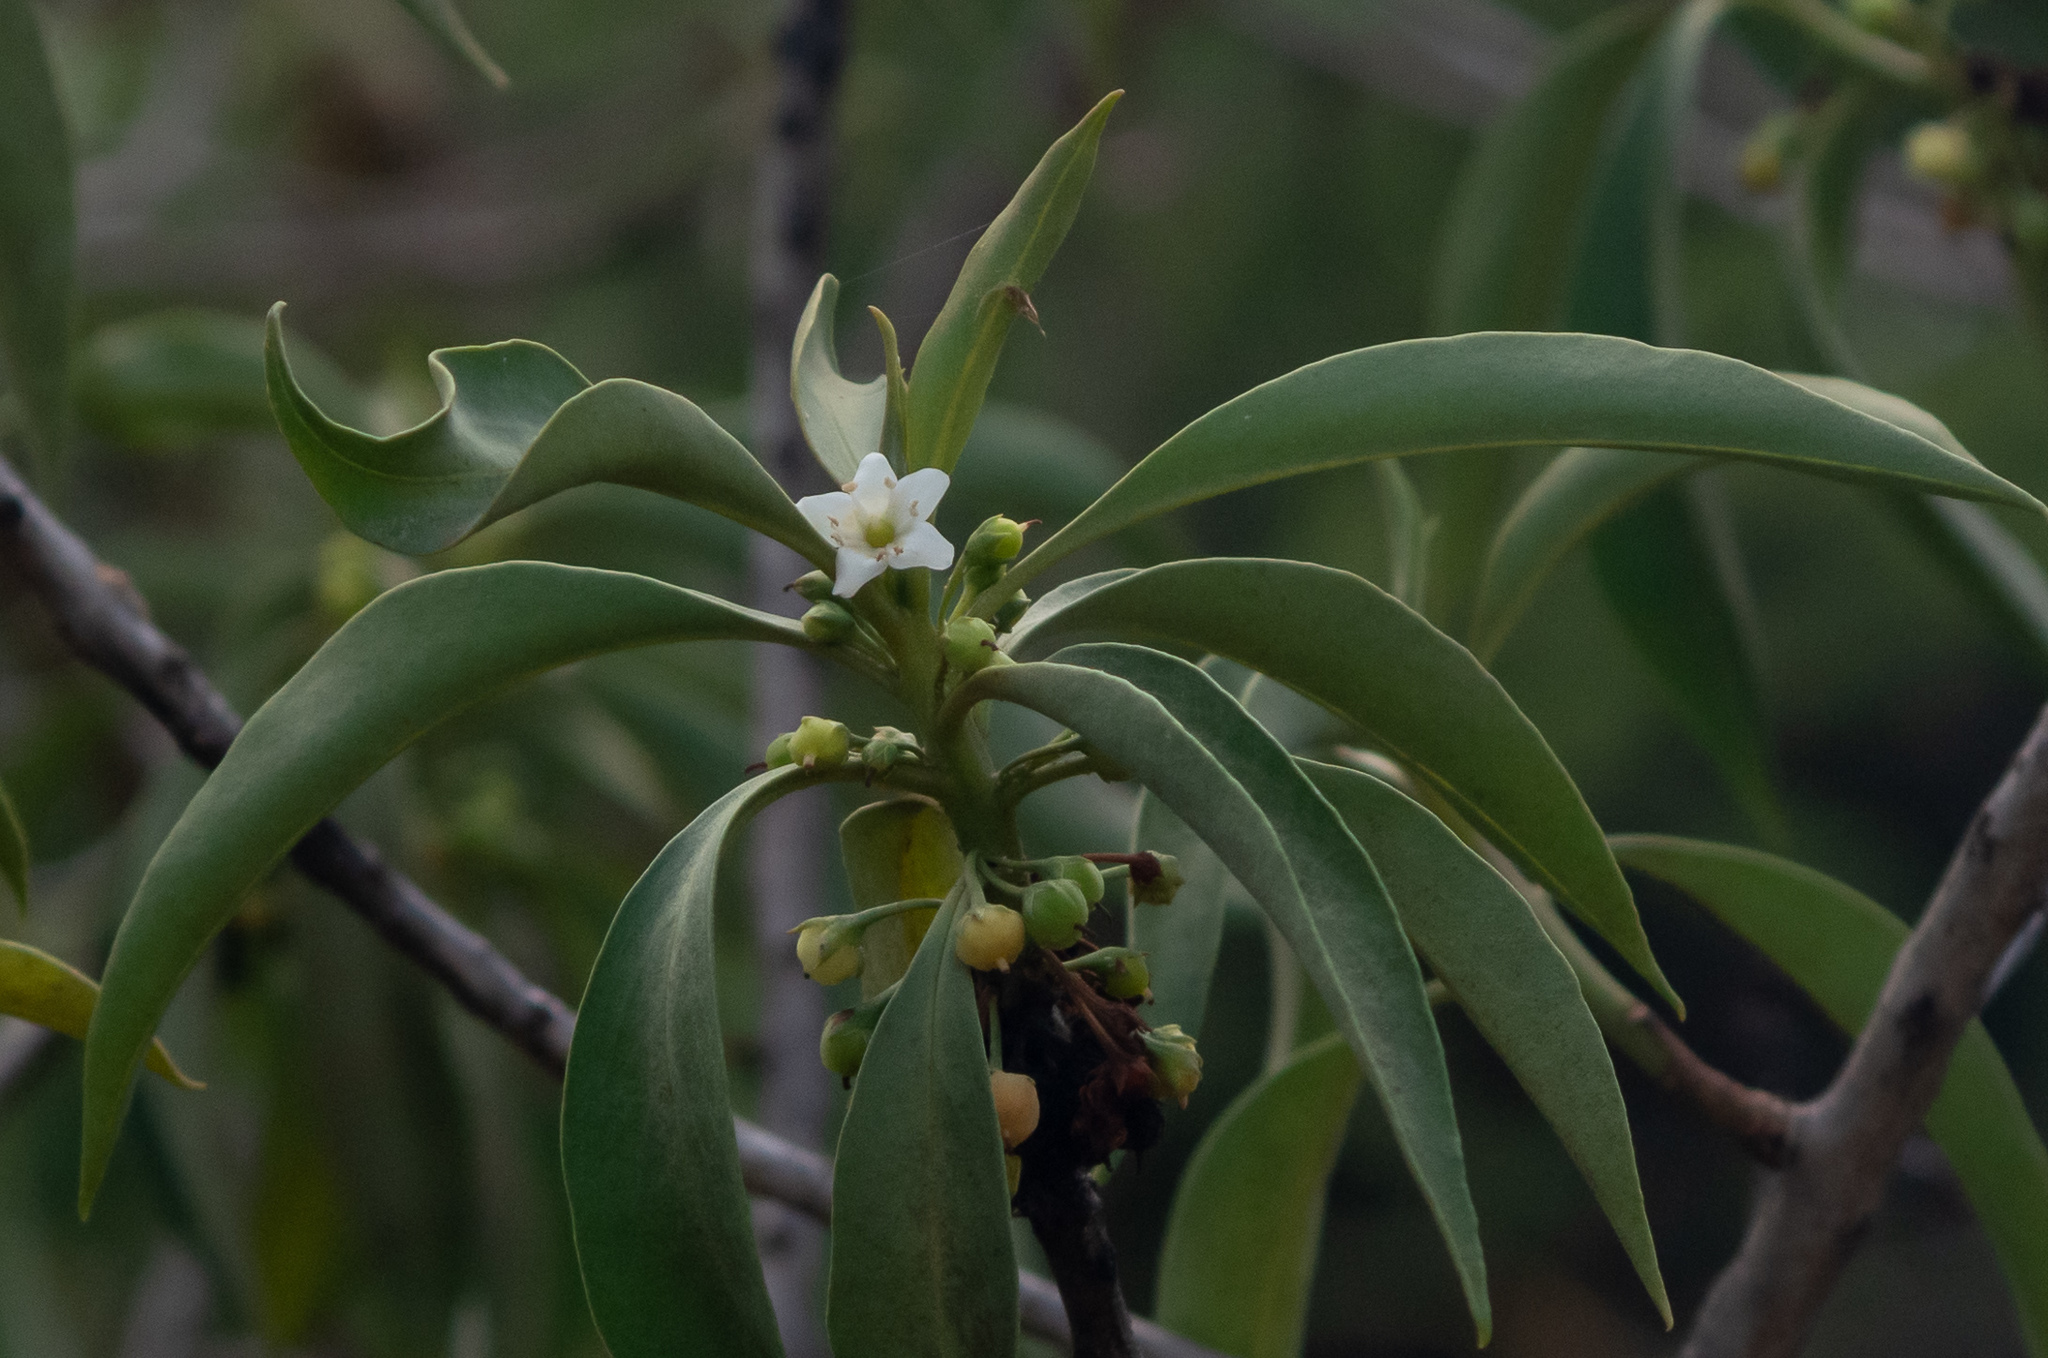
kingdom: Plantae
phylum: Tracheophyta
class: Magnoliopsida
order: Lamiales
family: Scrophulariaceae
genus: Myoporum
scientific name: Myoporum sandwicense
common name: Bastard-sandalwood
